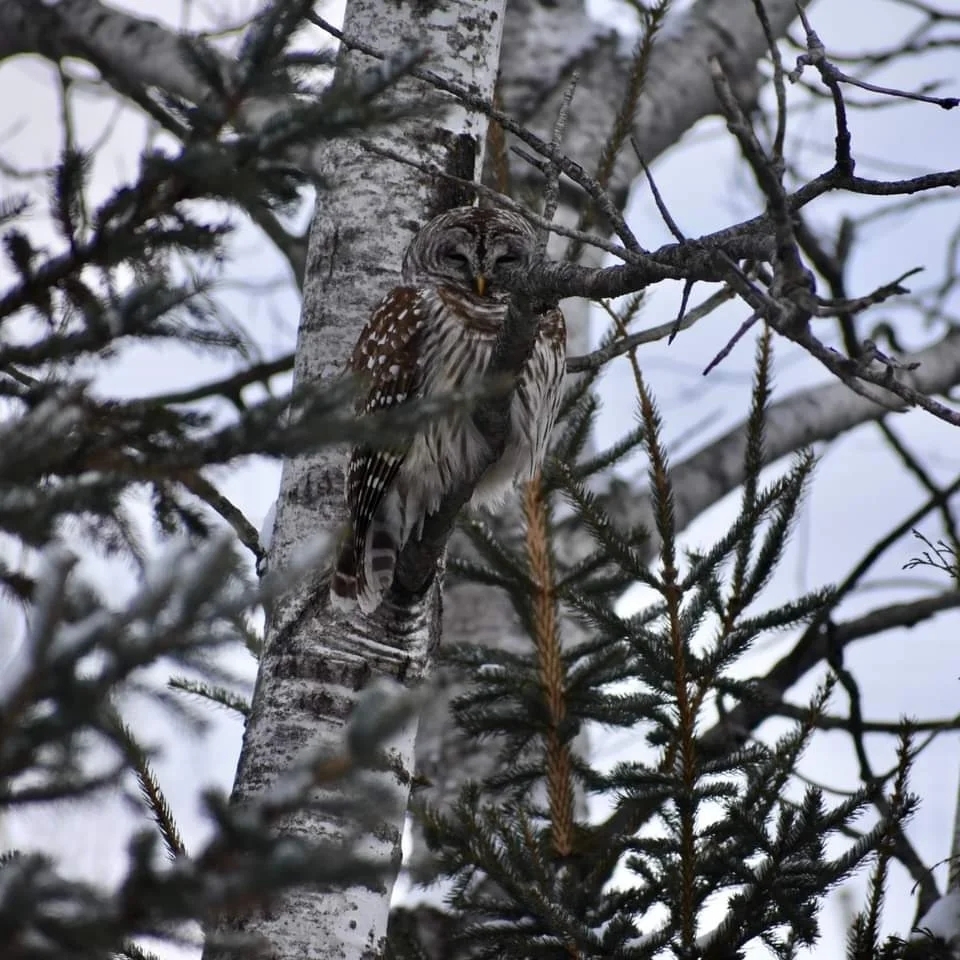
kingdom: Animalia
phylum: Chordata
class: Aves
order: Strigiformes
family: Strigidae
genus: Strix
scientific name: Strix varia
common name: Barred owl
